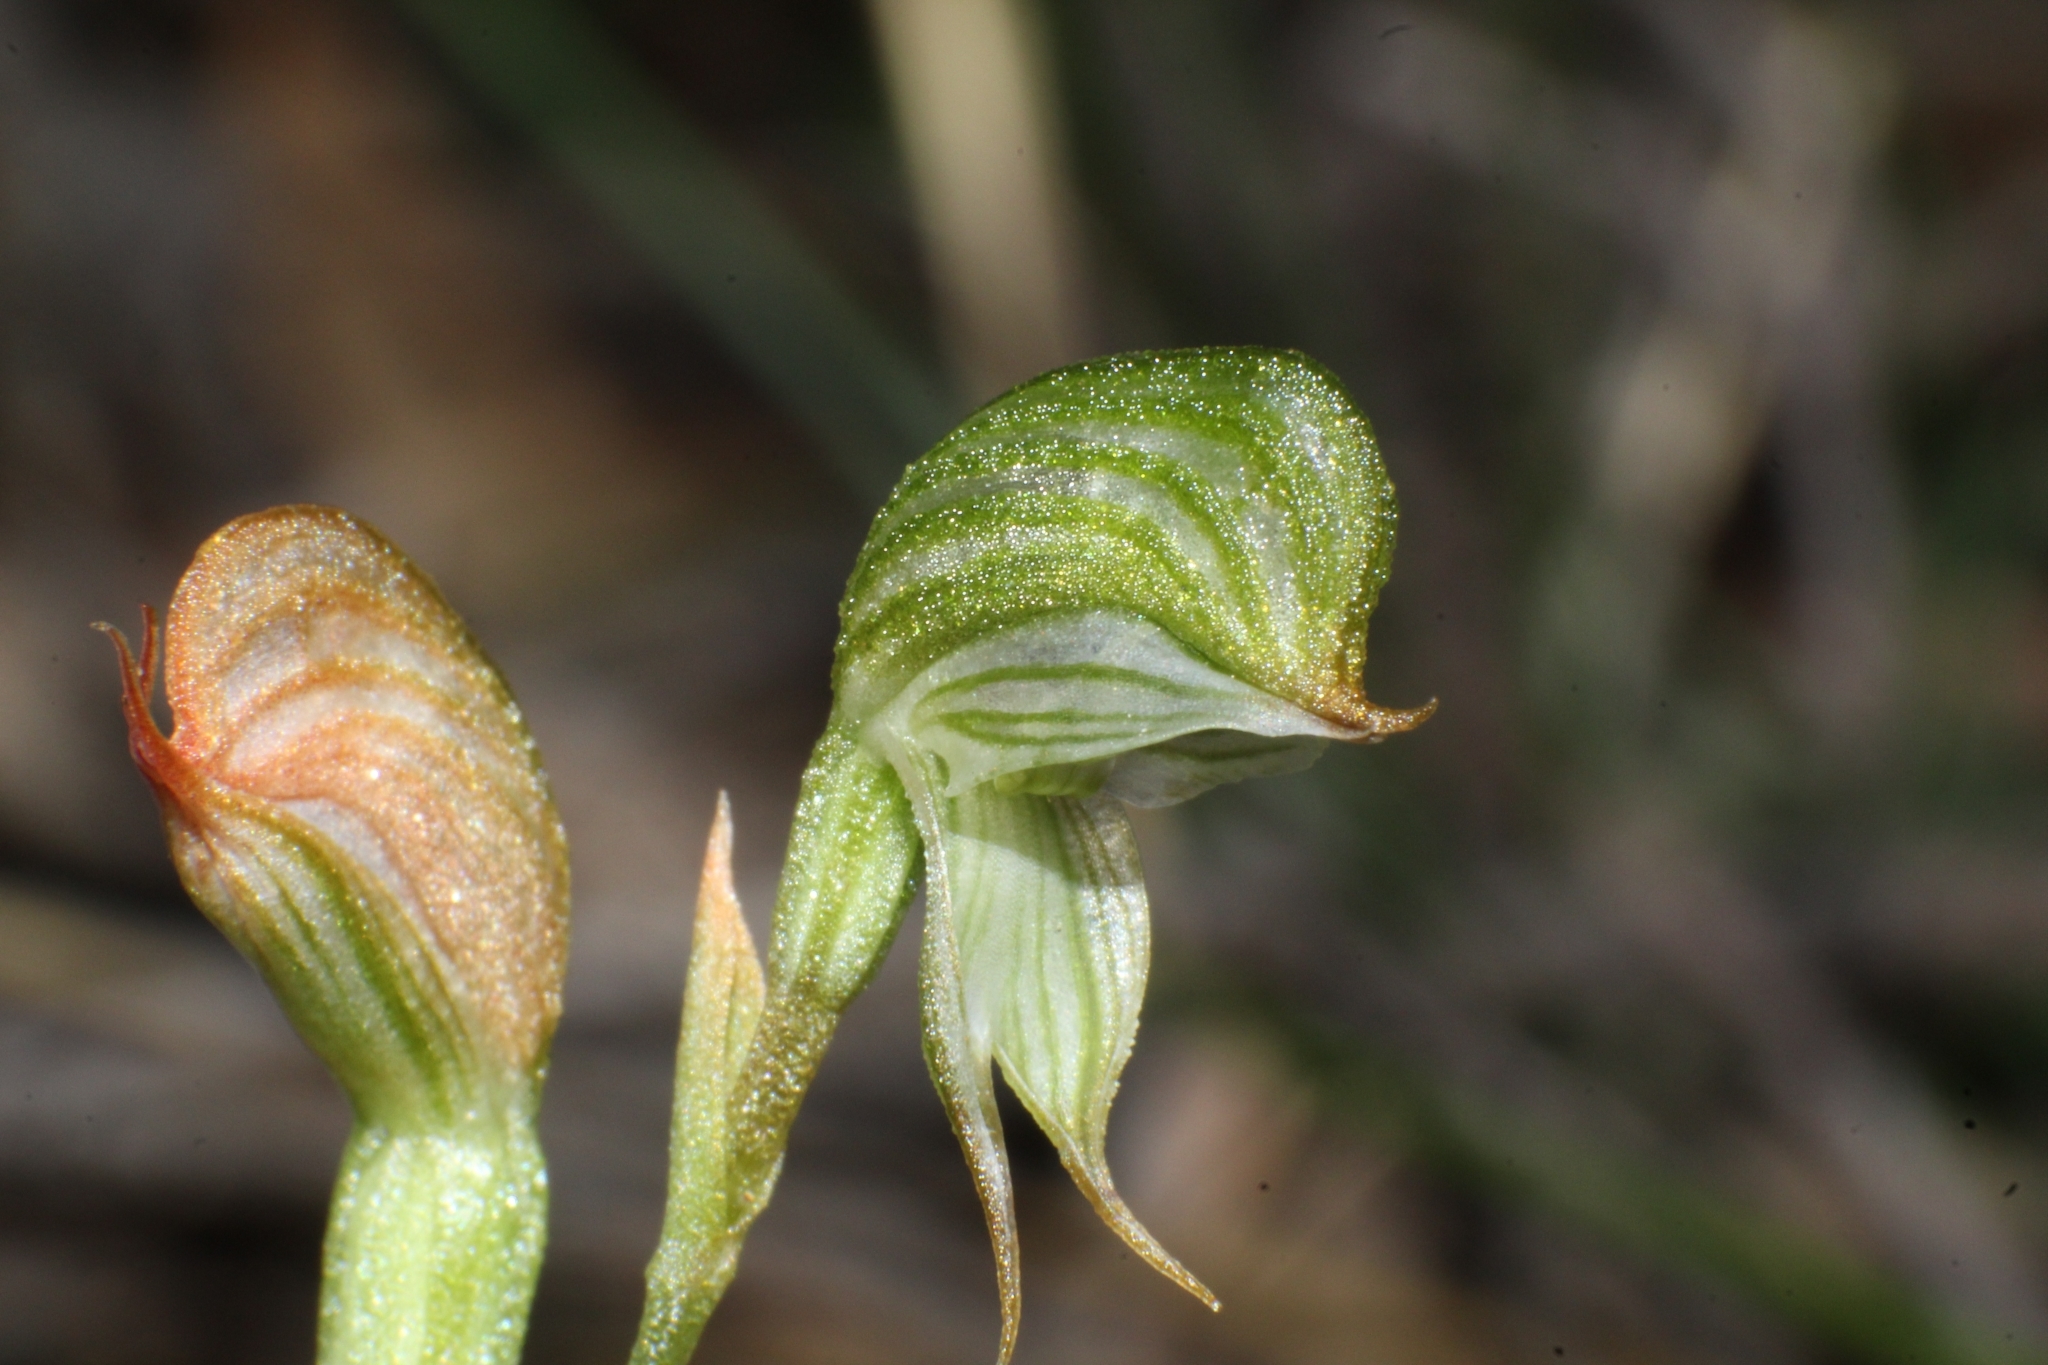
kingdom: Plantae
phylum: Tracheophyta
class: Liliopsida
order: Asparagales
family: Orchidaceae
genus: Pterostylis
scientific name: Pterostylis sargentii
